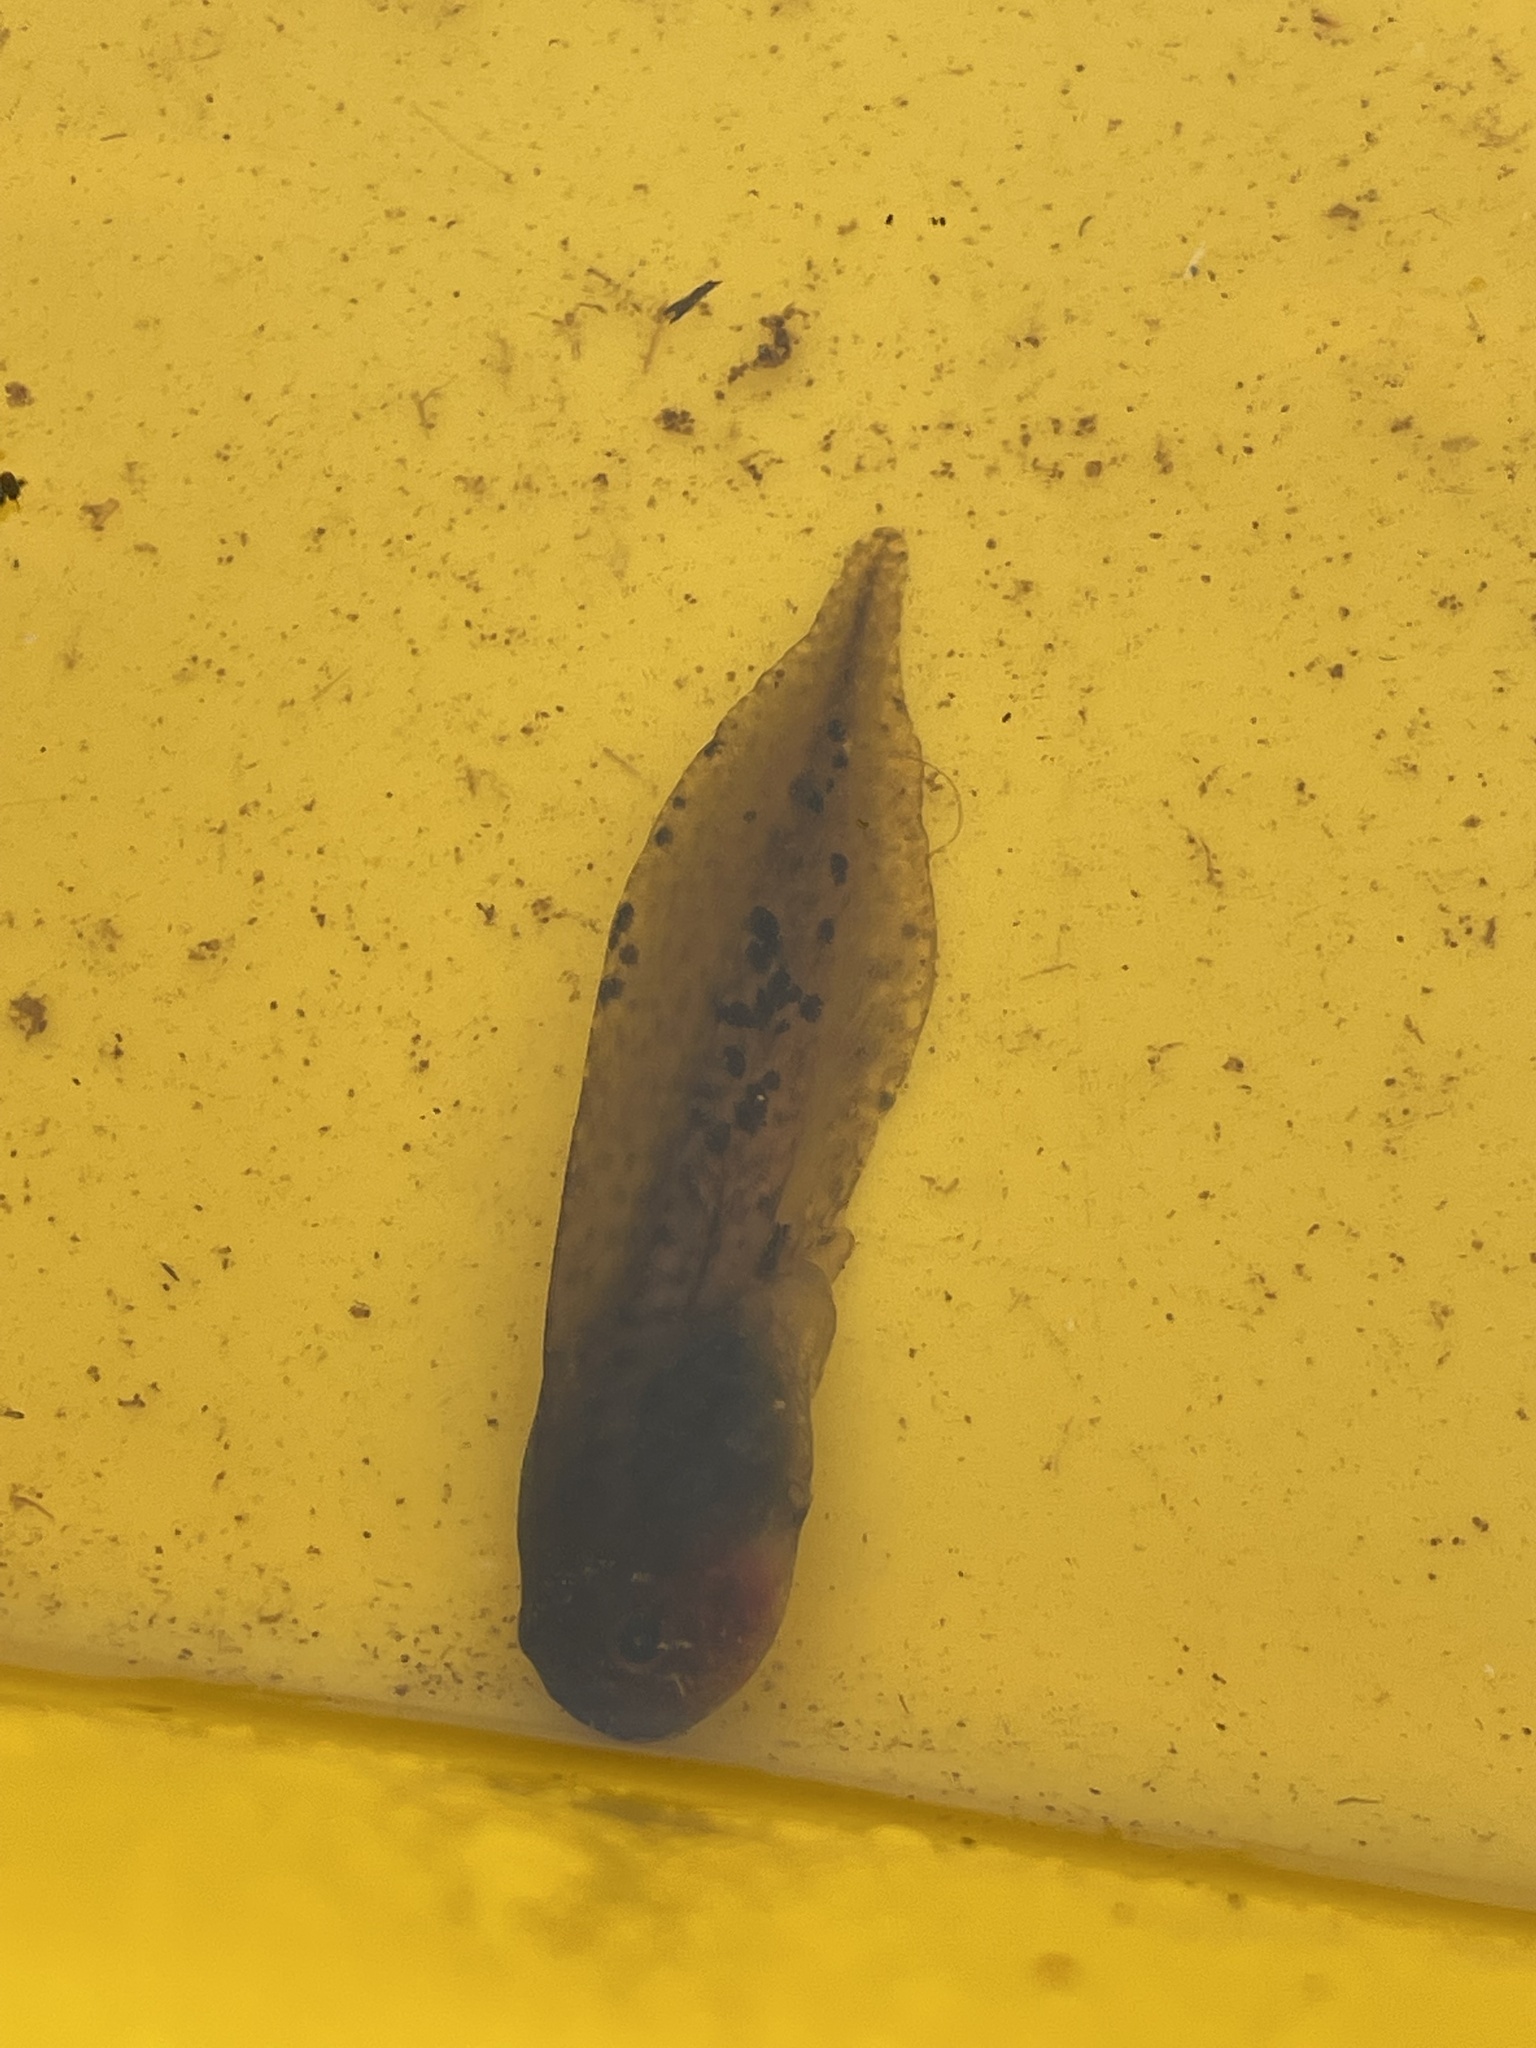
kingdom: Animalia
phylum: Chordata
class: Amphibia
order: Anura
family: Ranidae
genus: Rana
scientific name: Rana aurora
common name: Red-legged frog
